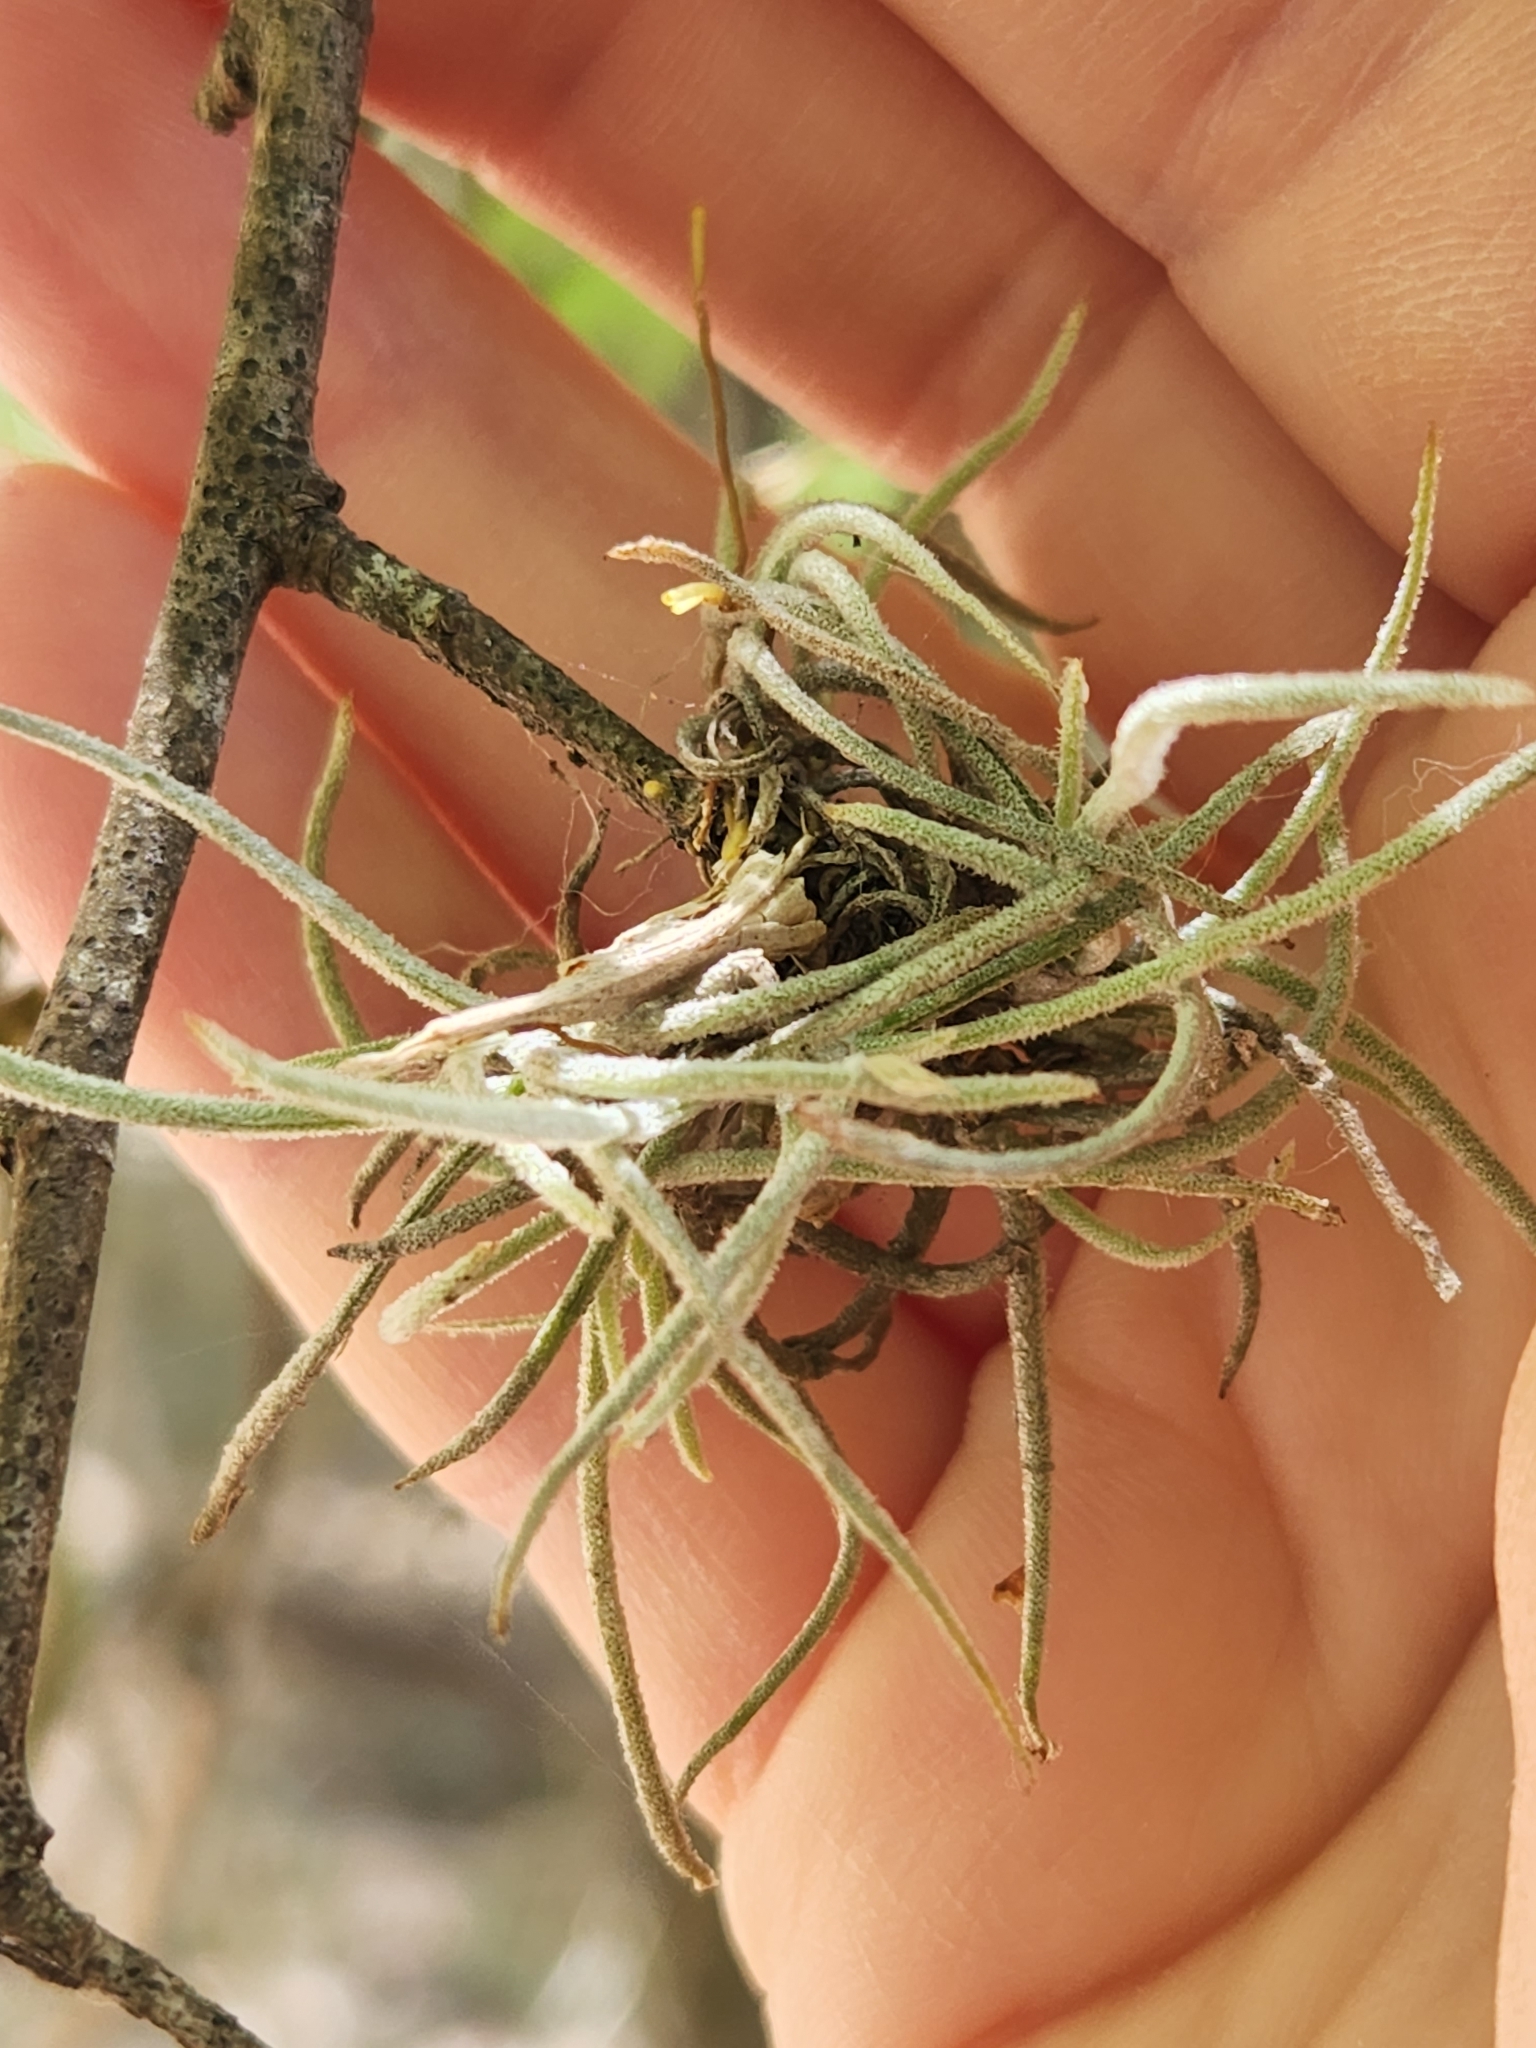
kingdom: Plantae
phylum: Tracheophyta
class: Liliopsida
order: Poales
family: Bromeliaceae
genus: Tillandsia
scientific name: Tillandsia recurvata
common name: Small ballmoss
